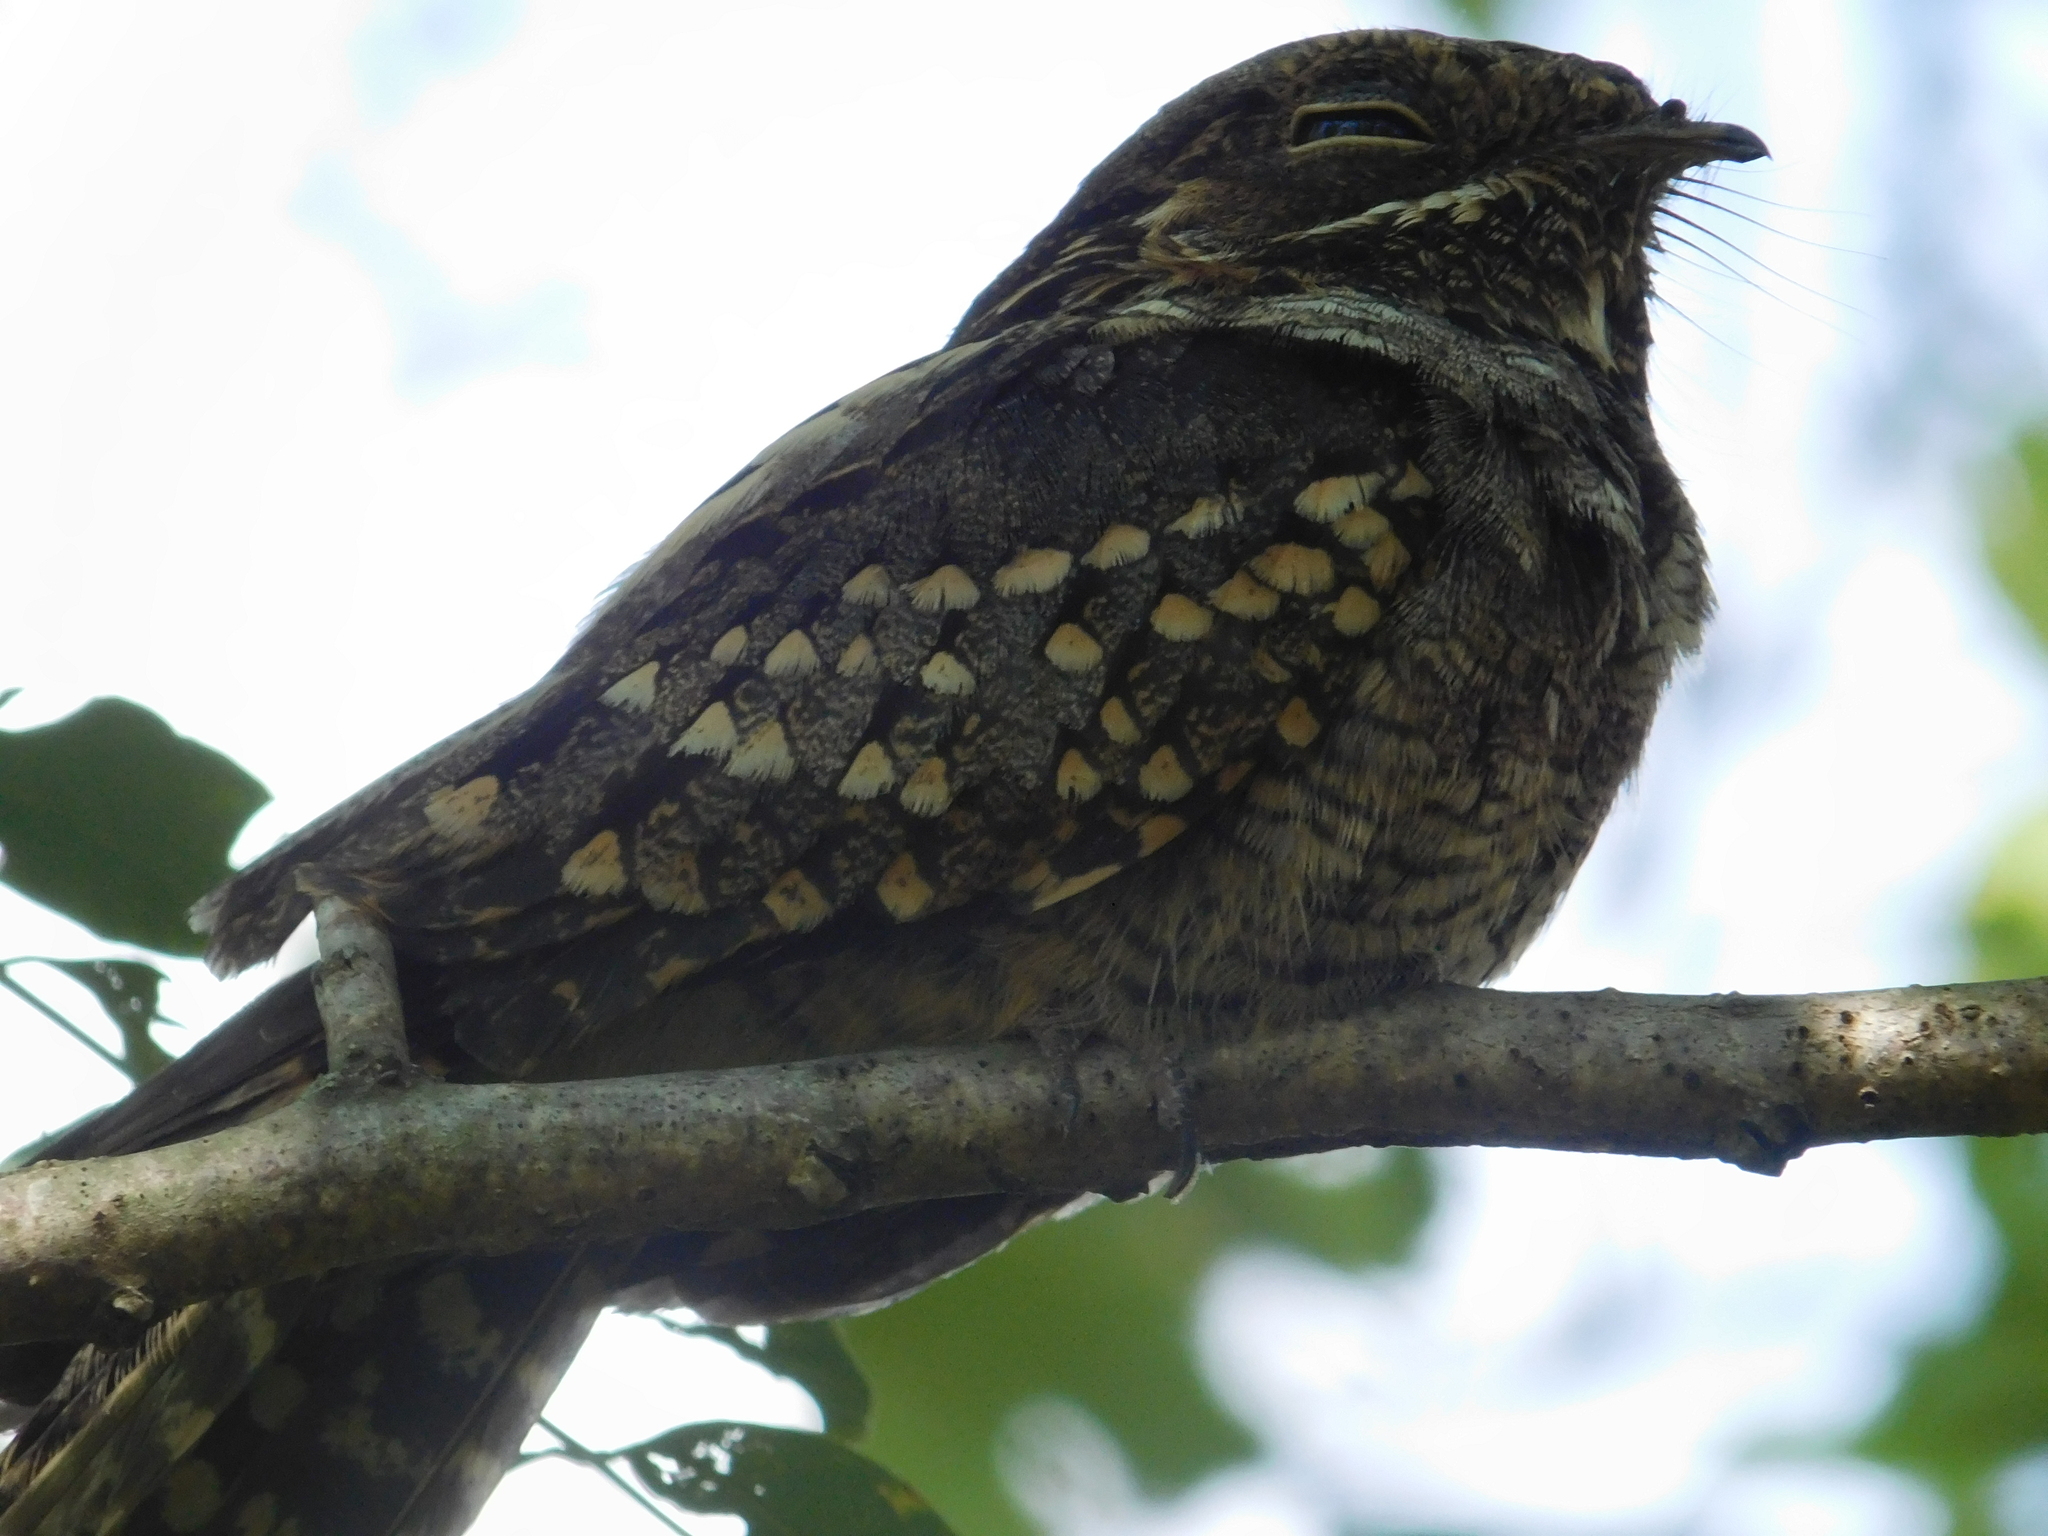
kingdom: Animalia
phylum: Chordata
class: Aves
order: Caprimulgiformes
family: Caprimulgidae
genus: Setopagis
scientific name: Setopagis parvula
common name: Little nightjar
